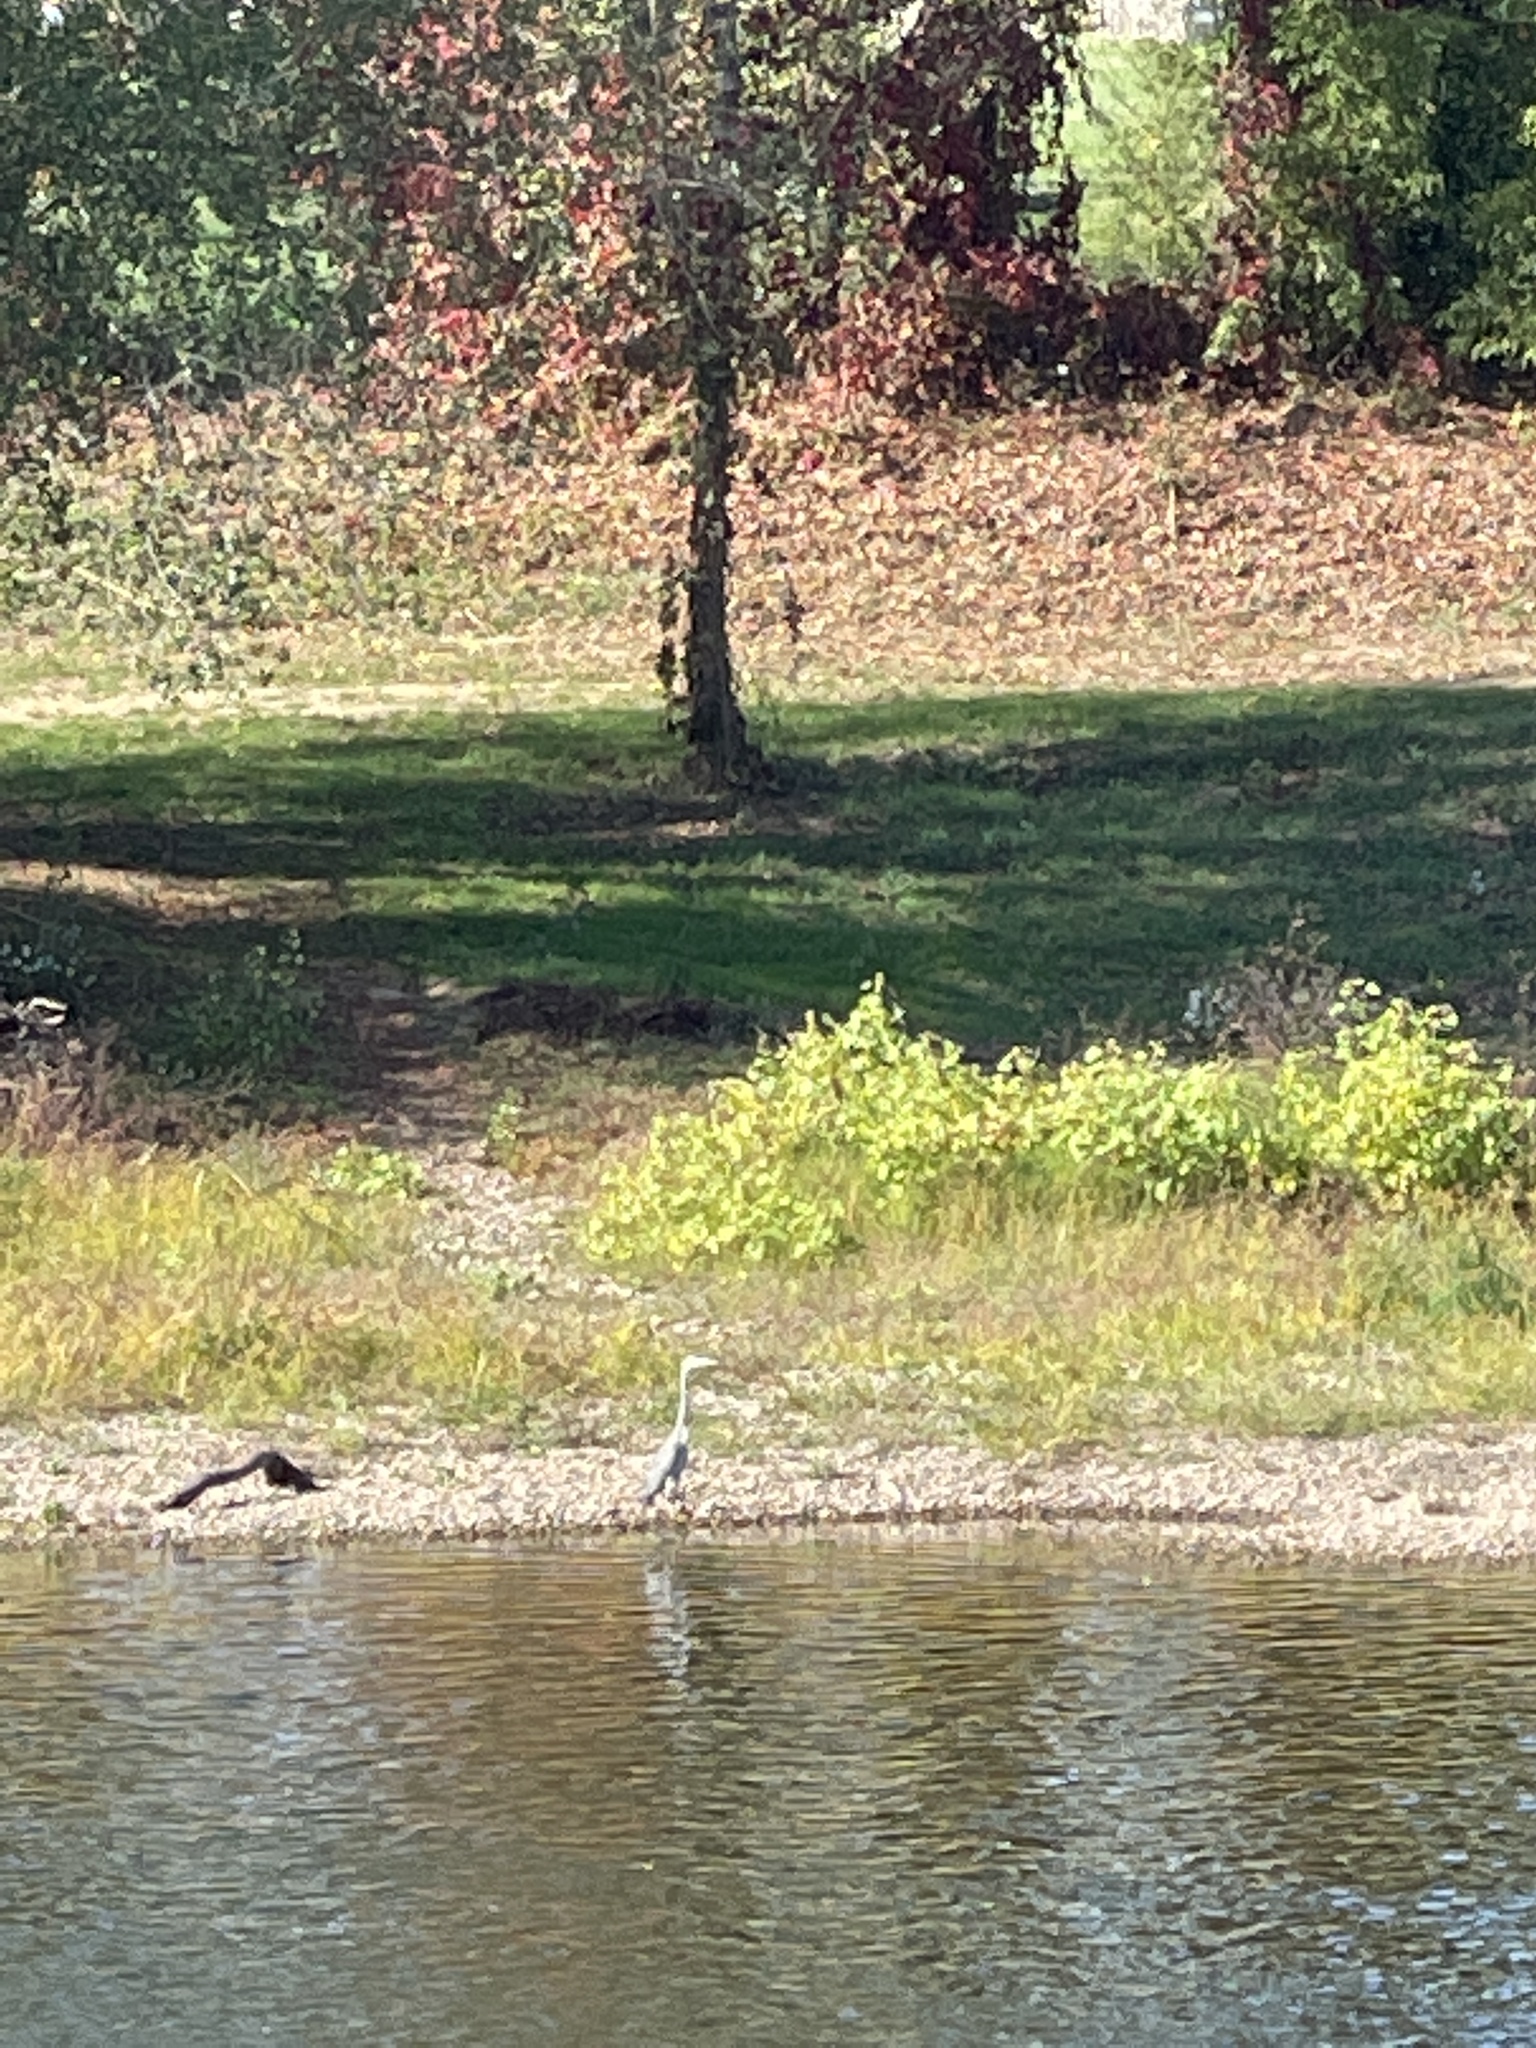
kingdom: Animalia
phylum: Chordata
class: Aves
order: Pelecaniformes
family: Ardeidae
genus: Ardea
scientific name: Ardea cinerea
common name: Grey heron
